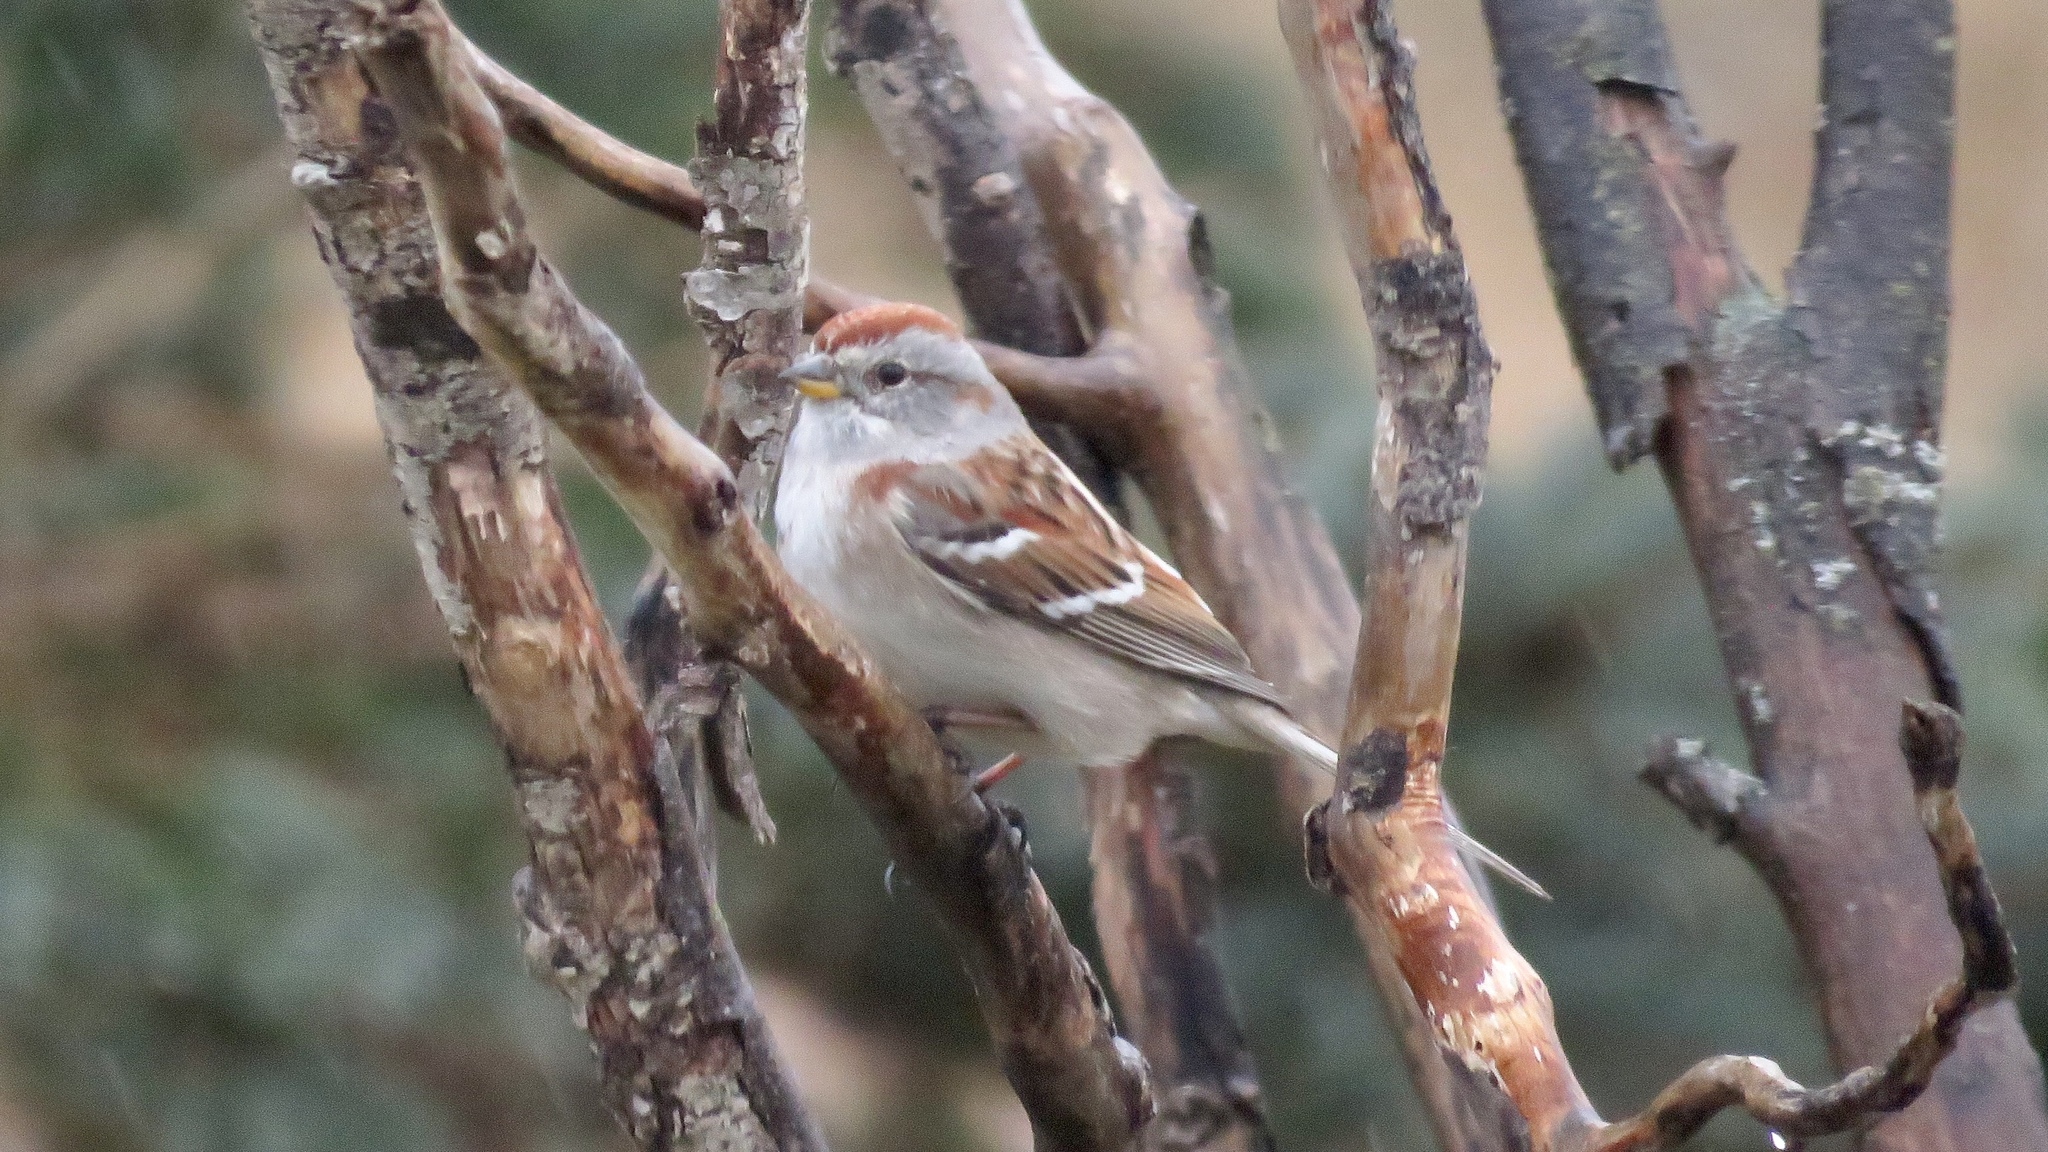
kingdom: Animalia
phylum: Chordata
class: Aves
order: Passeriformes
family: Passerellidae
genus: Spizelloides
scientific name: Spizelloides arborea
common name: American tree sparrow
